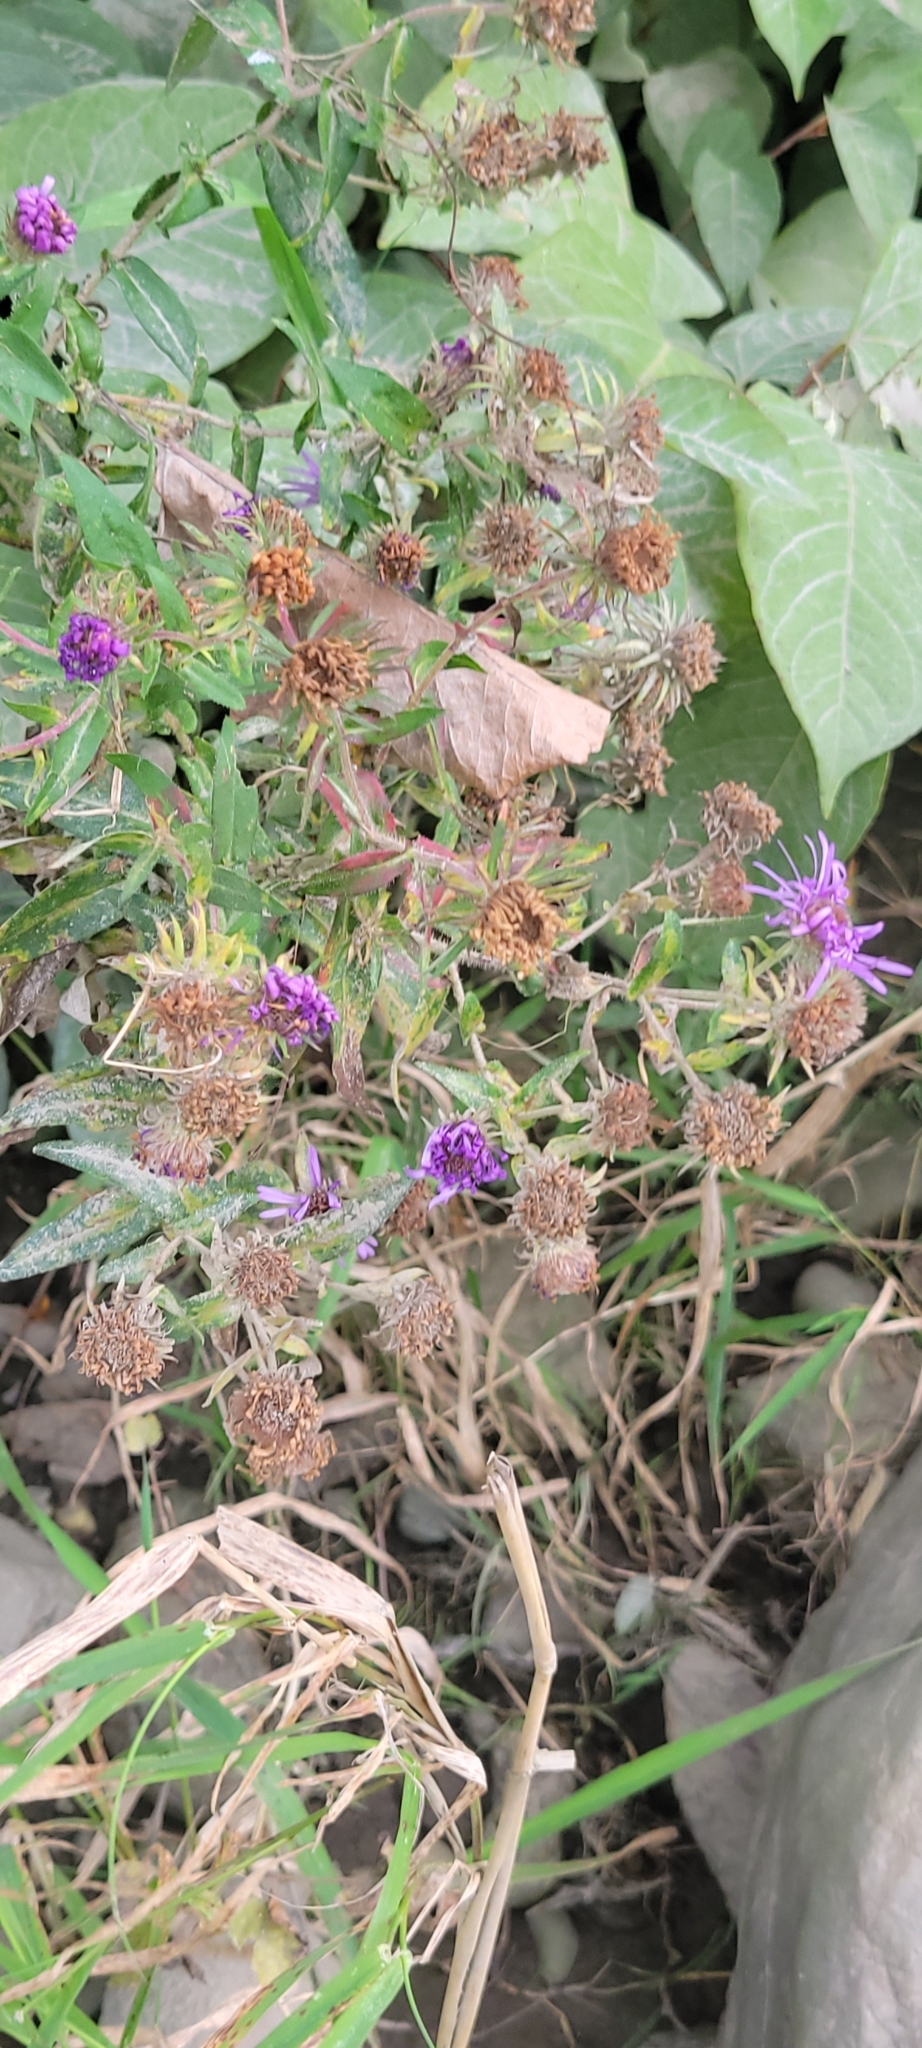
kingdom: Plantae
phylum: Tracheophyta
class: Magnoliopsida
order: Asterales
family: Asteraceae
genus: Symphyotrichum
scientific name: Symphyotrichum novae-angliae
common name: Michaelmas daisy
